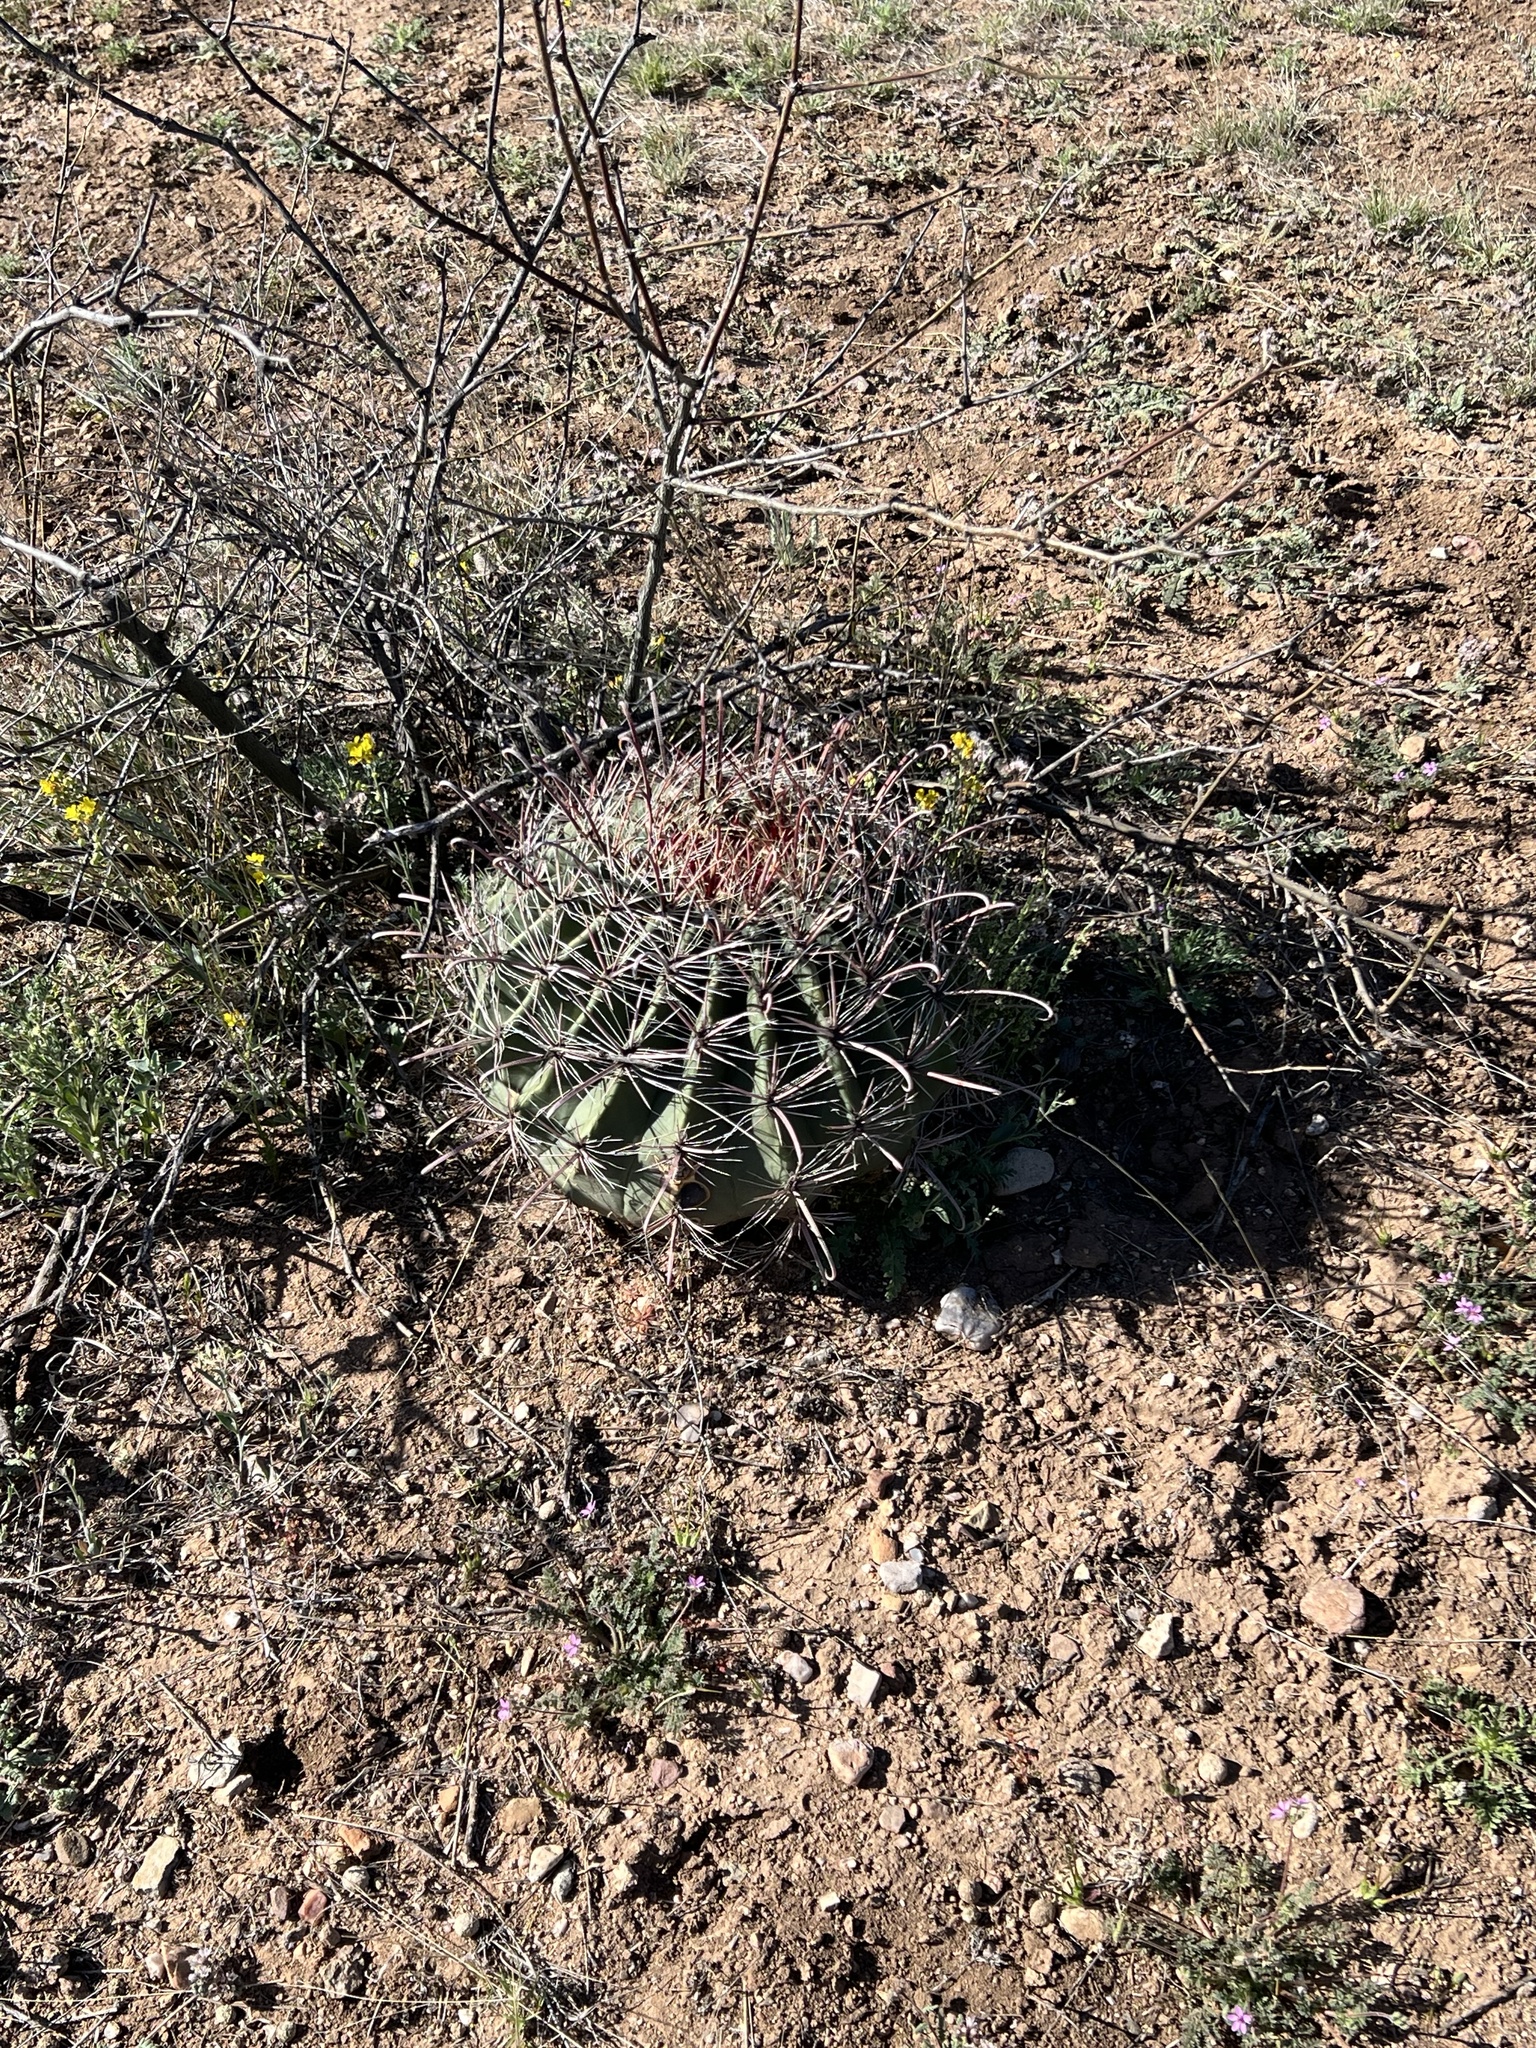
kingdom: Plantae
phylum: Tracheophyta
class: Magnoliopsida
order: Caryophyllales
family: Cactaceae
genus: Ferocactus
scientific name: Ferocactus wislizeni
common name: Candy barrel cactus
